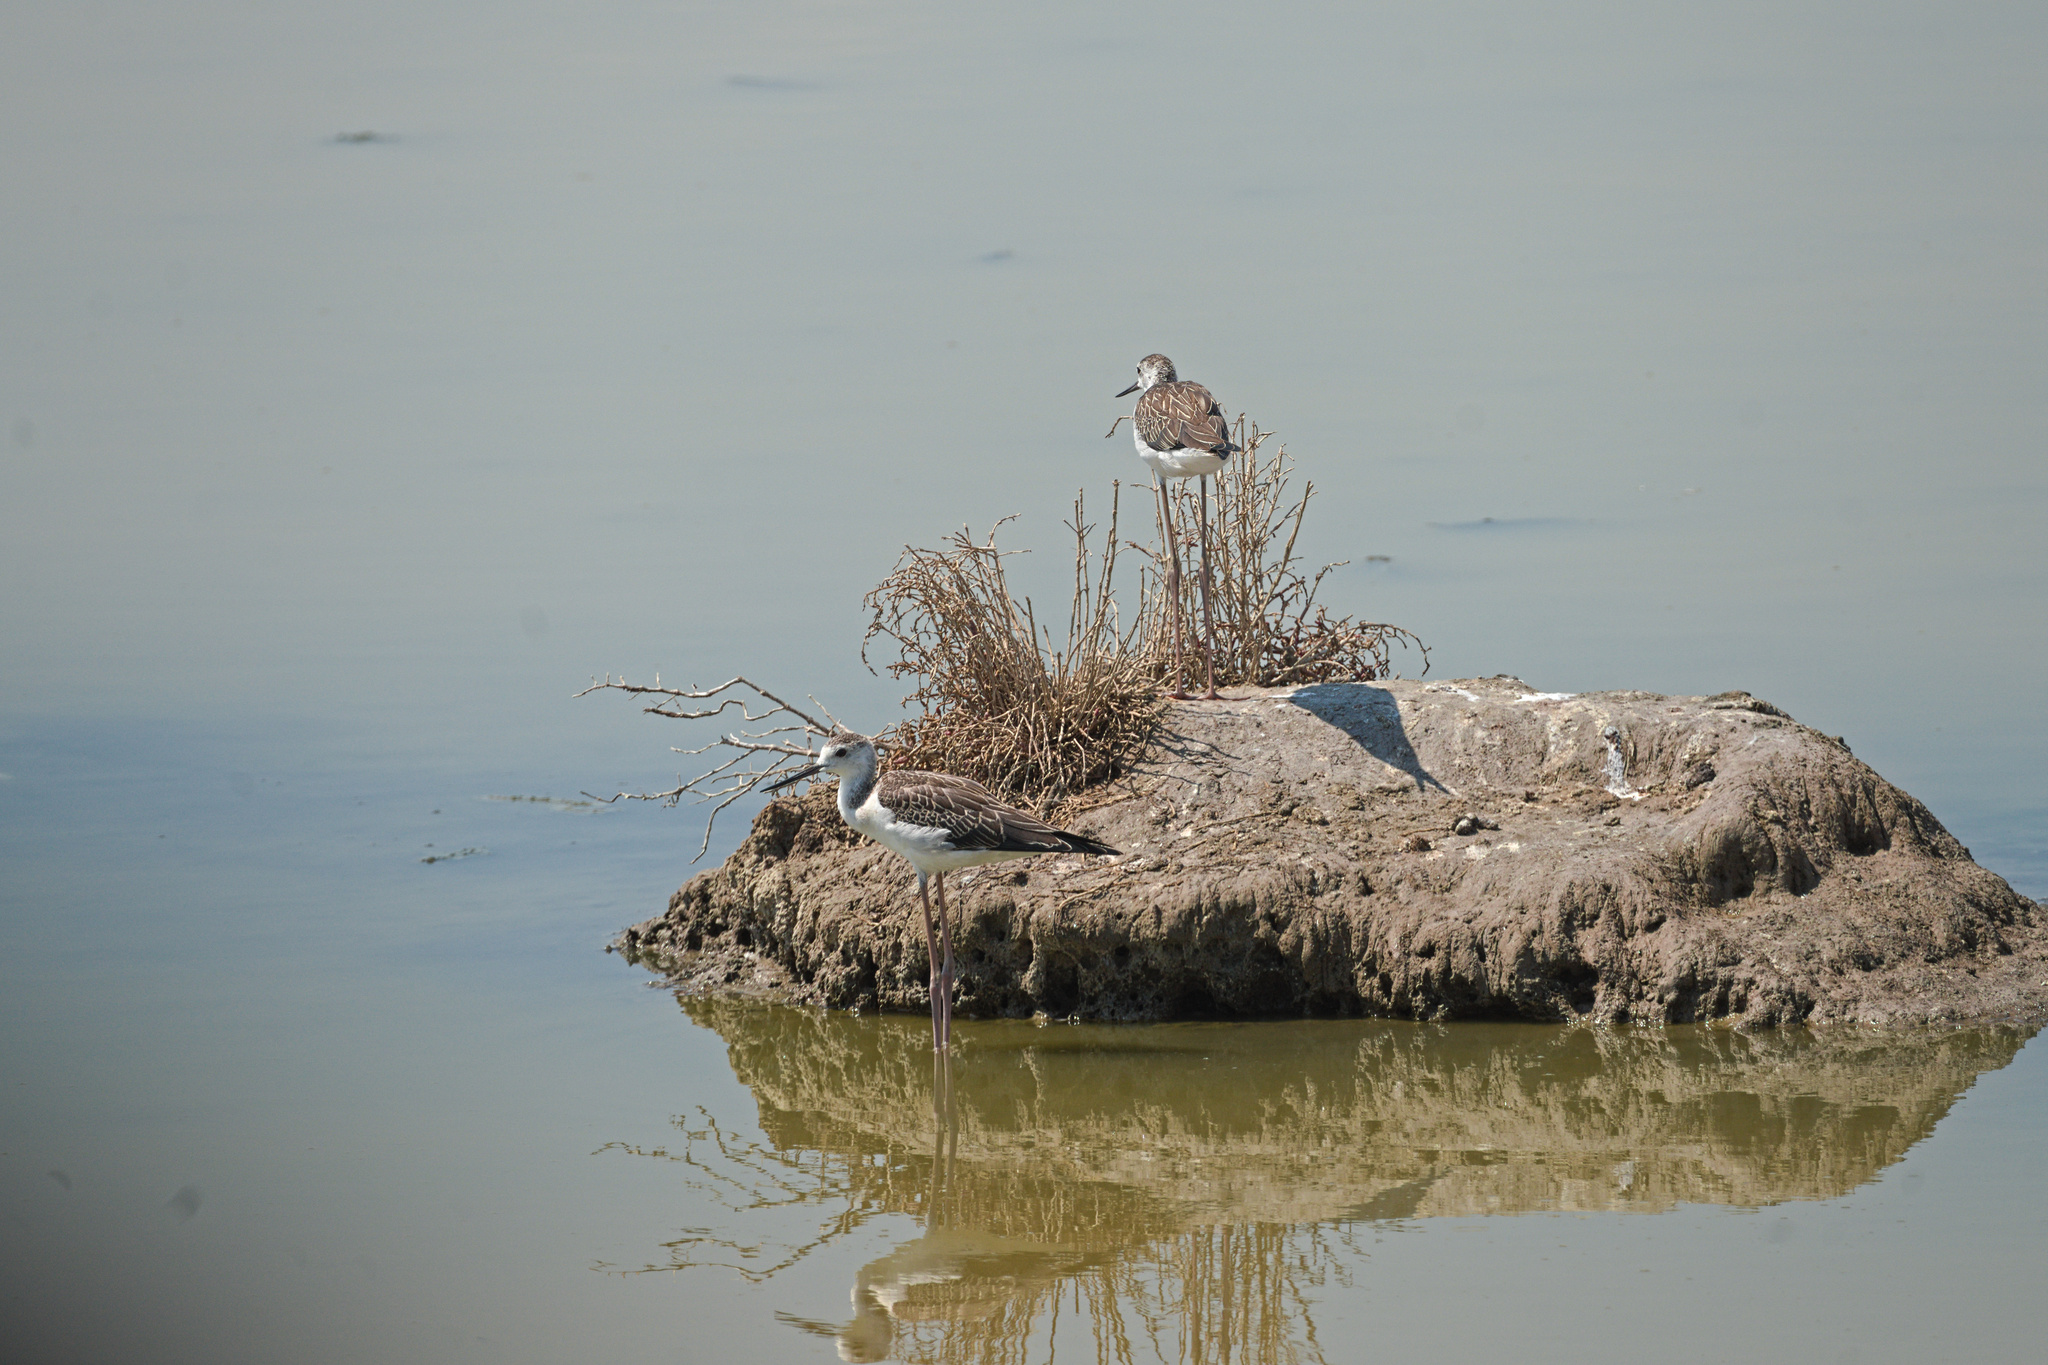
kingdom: Animalia
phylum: Chordata
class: Aves
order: Charadriiformes
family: Recurvirostridae
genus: Himantopus
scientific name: Himantopus himantopus
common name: Black-winged stilt
